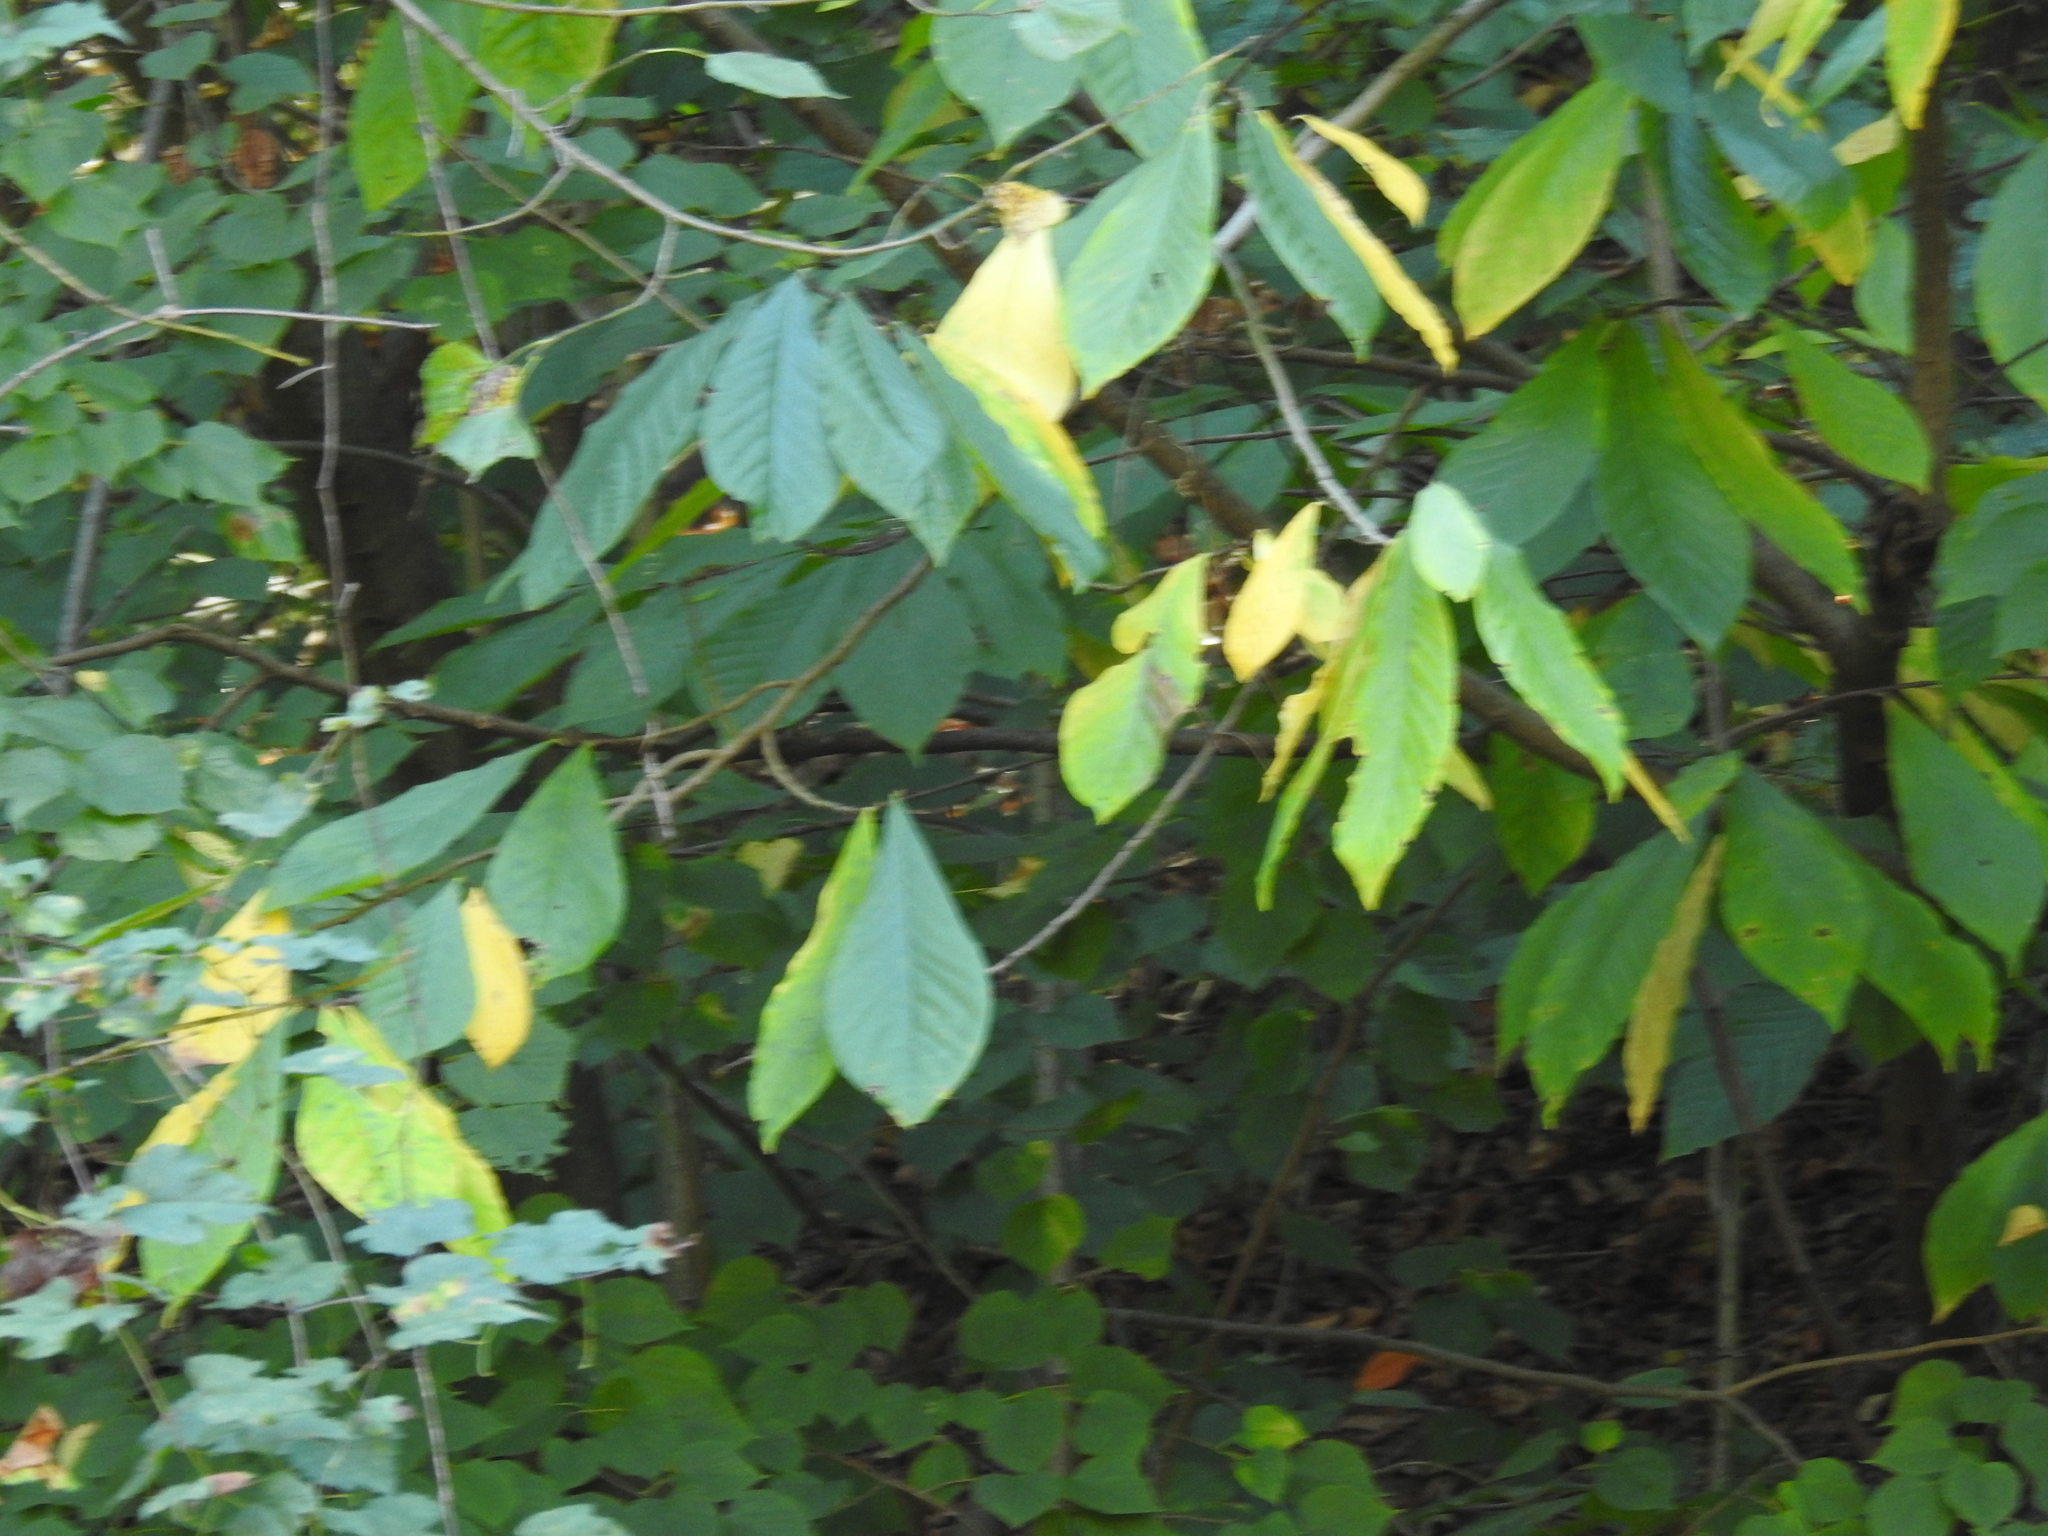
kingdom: Plantae
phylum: Tracheophyta
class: Magnoliopsida
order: Magnoliales
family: Annonaceae
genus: Asimina
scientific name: Asimina triloba
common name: Dog-banana
